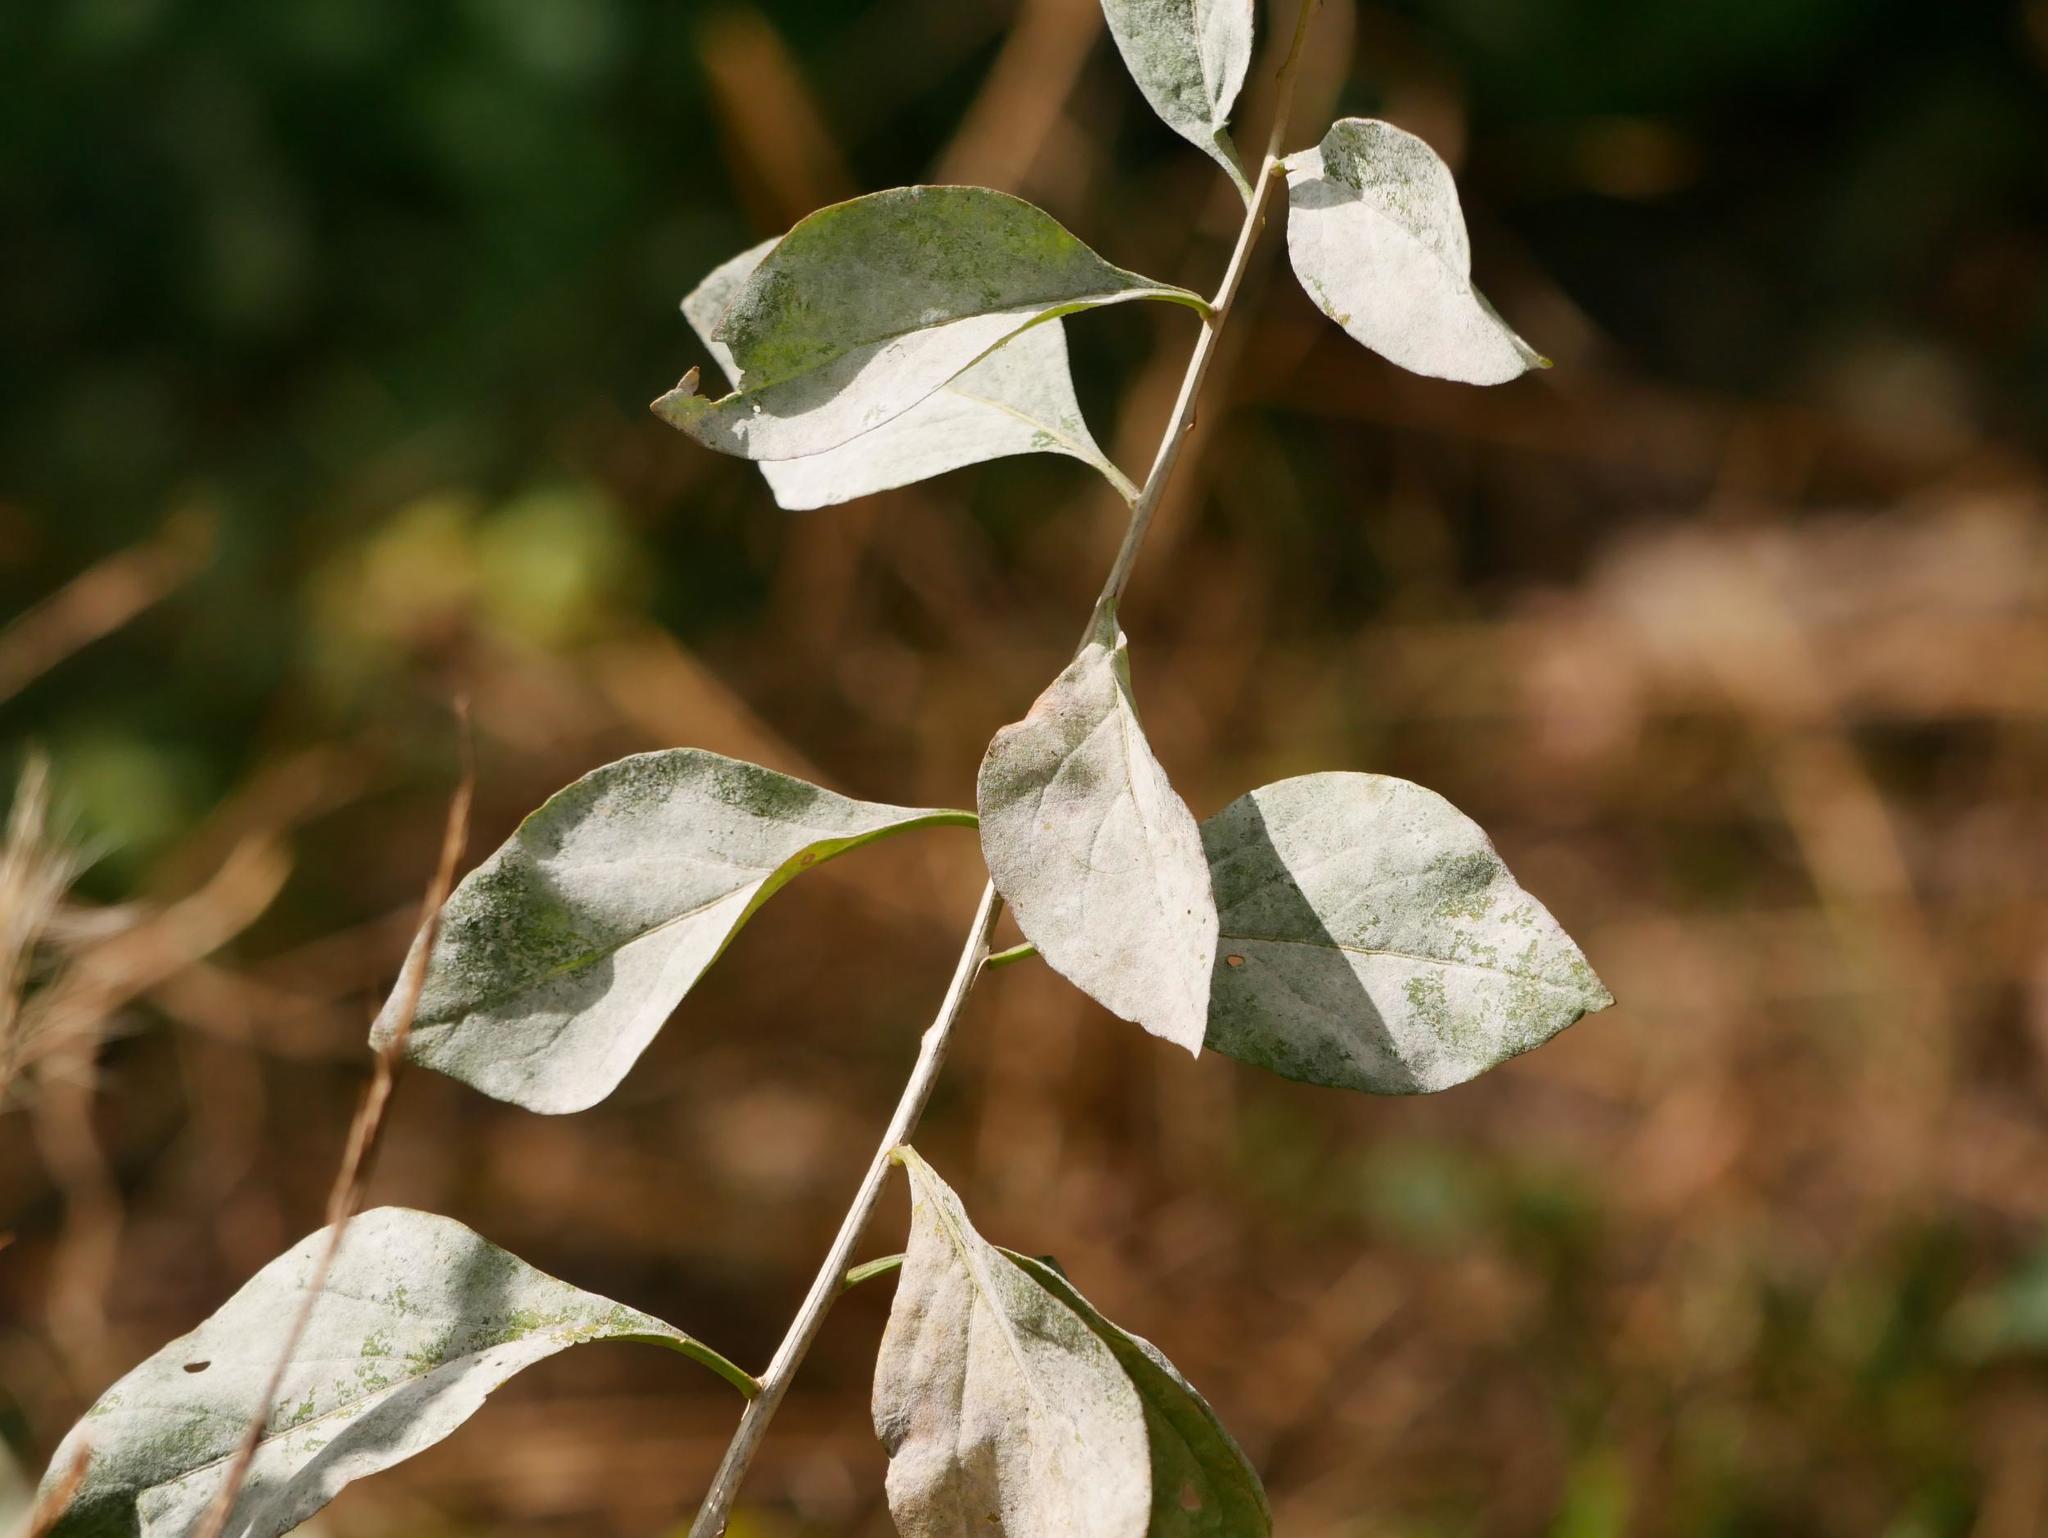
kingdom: Fungi
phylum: Ascomycota
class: Leotiomycetes
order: Helotiales
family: Erysiphaceae
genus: Erysiphe
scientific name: Erysiphe mougeotii
